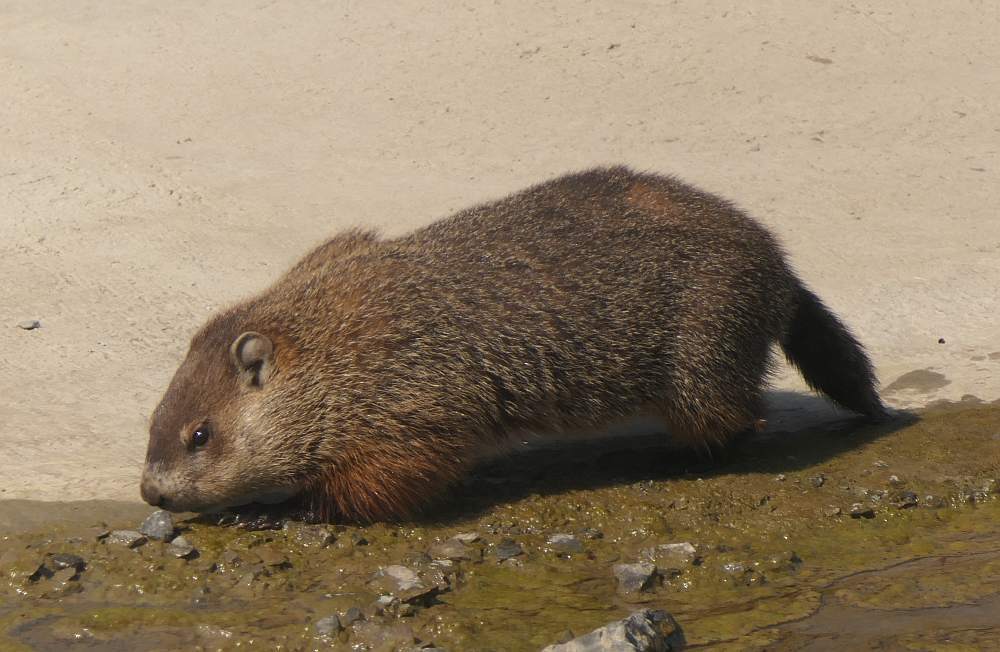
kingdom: Animalia
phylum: Chordata
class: Mammalia
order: Rodentia
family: Sciuridae
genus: Marmota
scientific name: Marmota monax
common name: Groundhog
